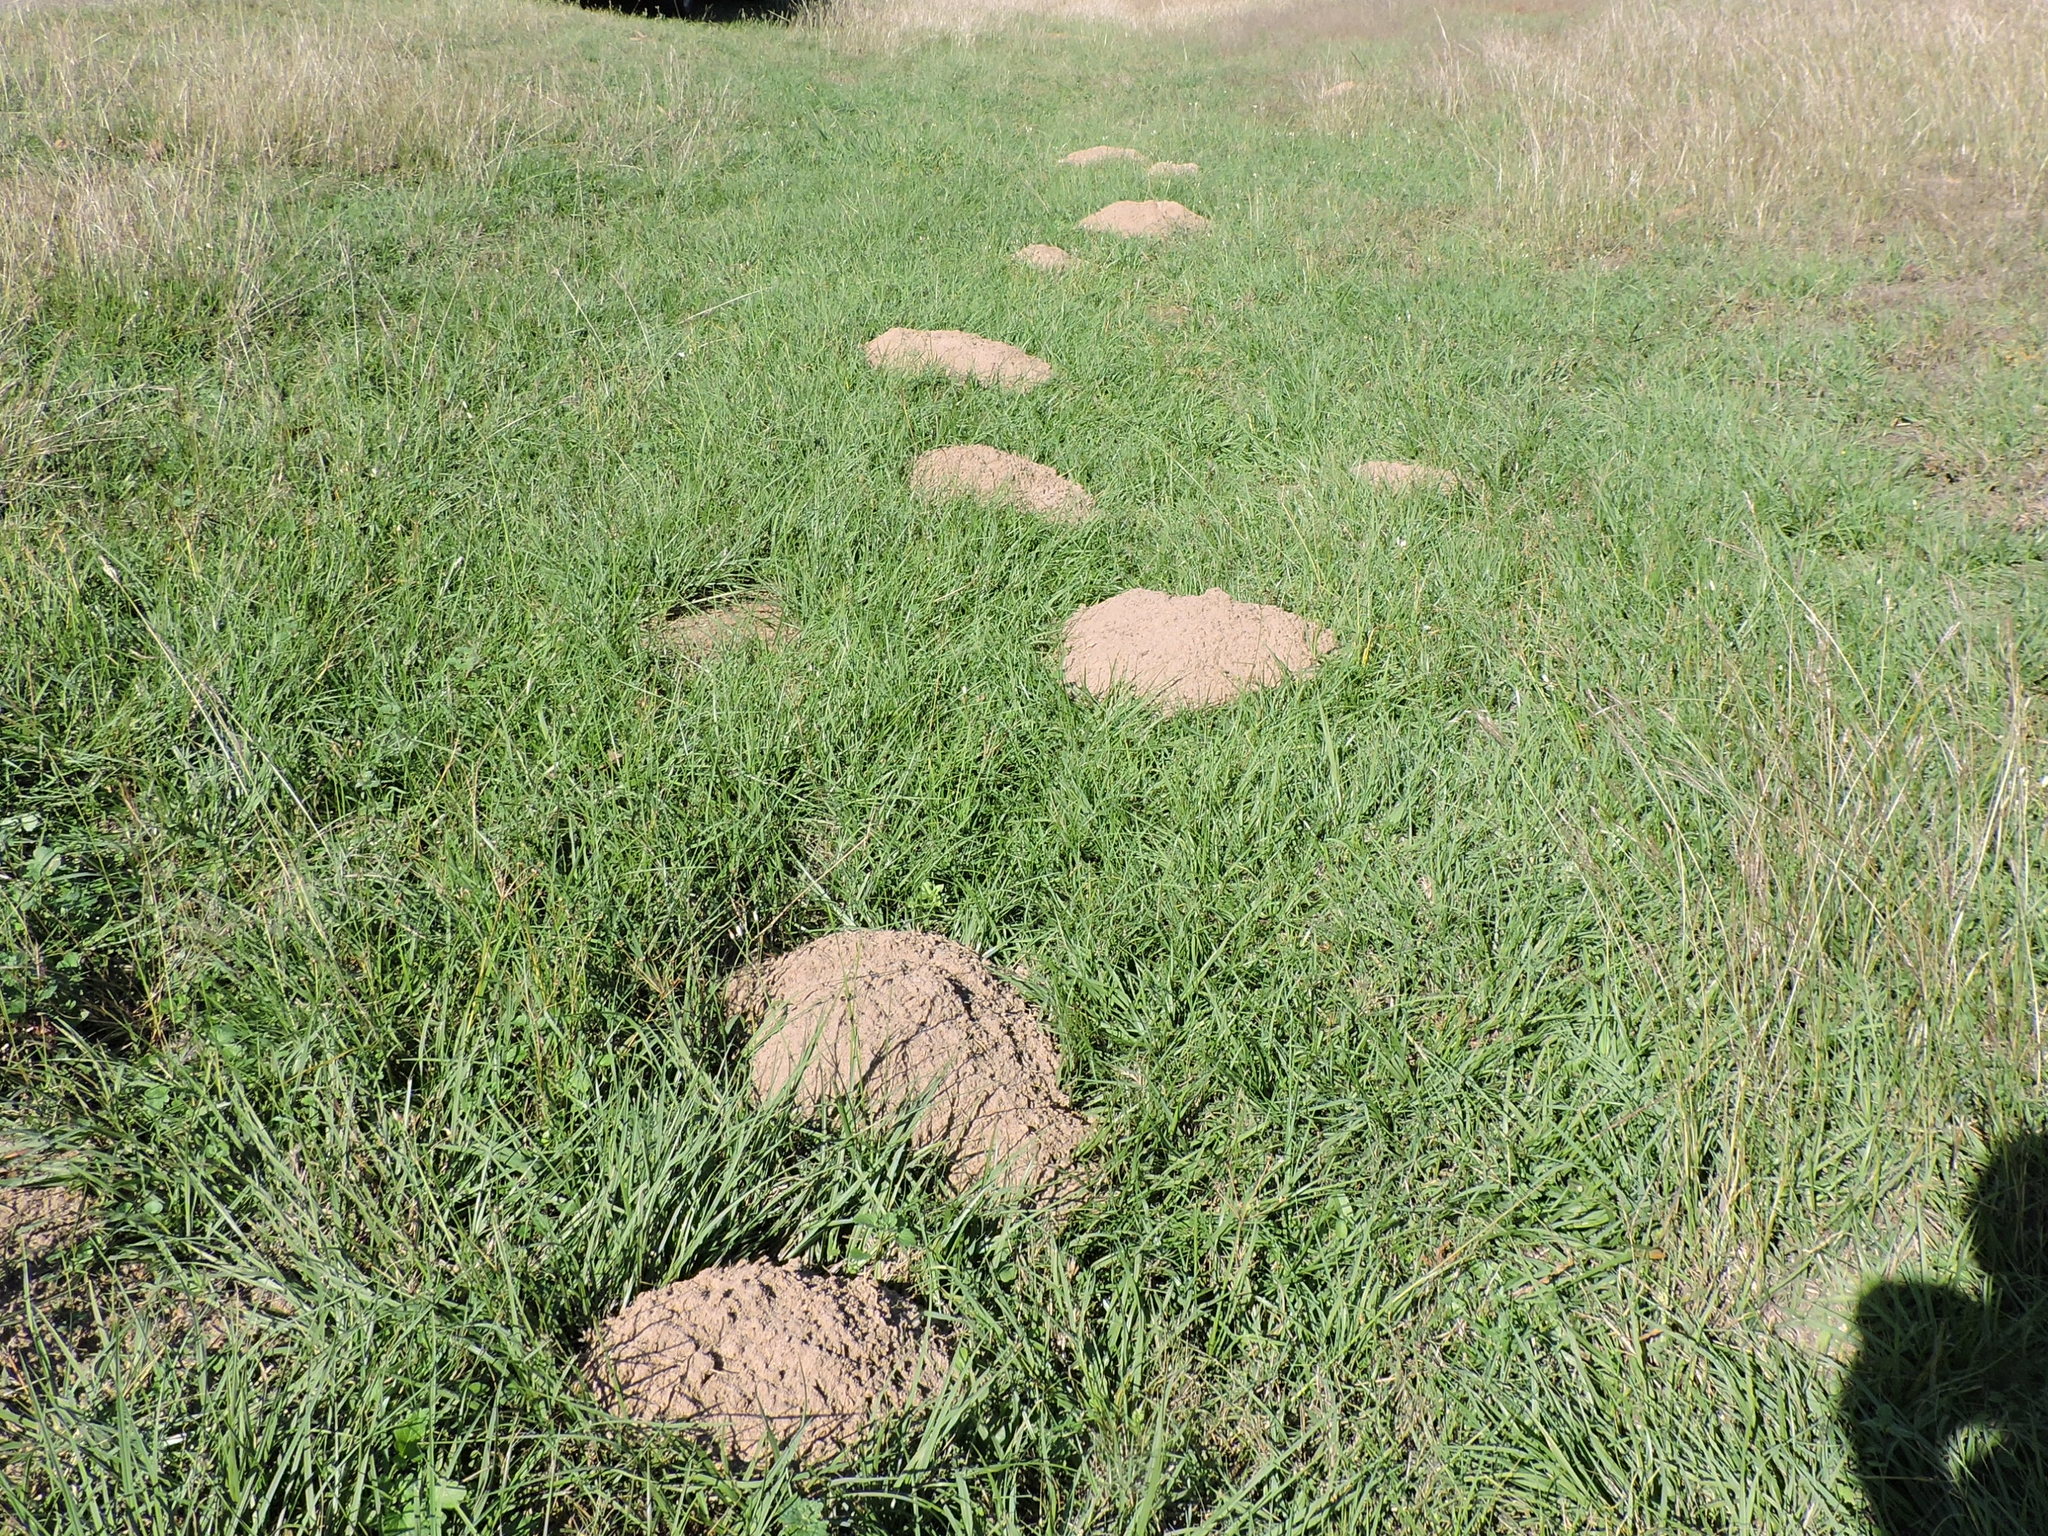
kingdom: Animalia
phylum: Chordata
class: Mammalia
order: Rodentia
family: Geomyidae
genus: Geomys
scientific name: Geomys breviceps
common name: Baird's pocket gopher
